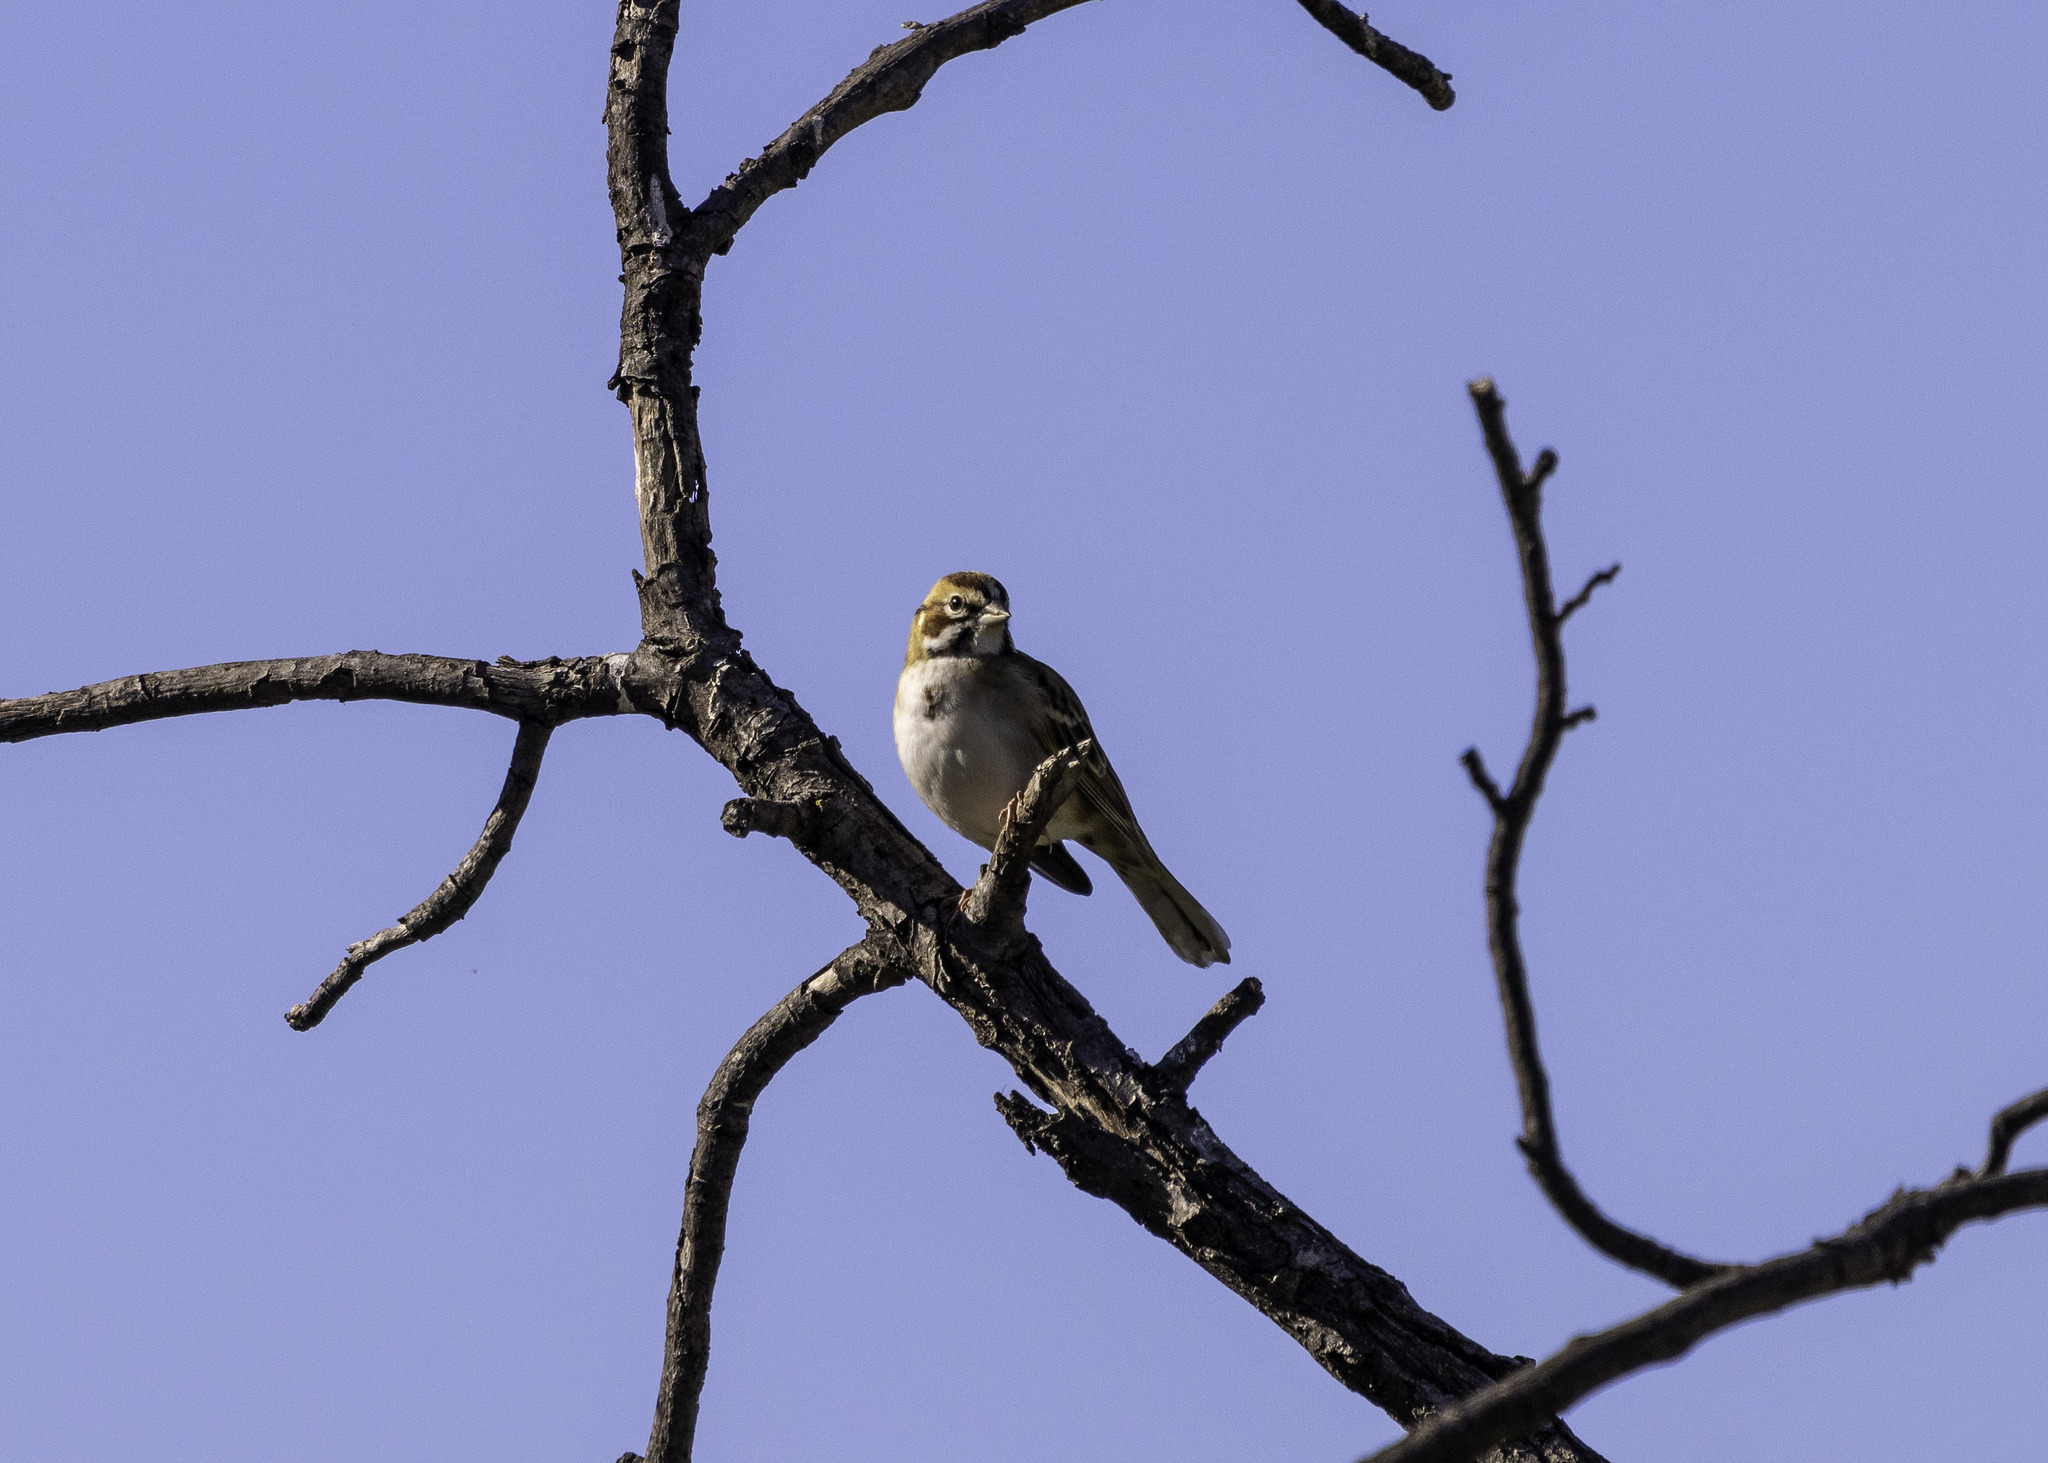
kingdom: Animalia
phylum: Chordata
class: Aves
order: Passeriformes
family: Passerellidae
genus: Chondestes
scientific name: Chondestes grammacus
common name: Lark sparrow
